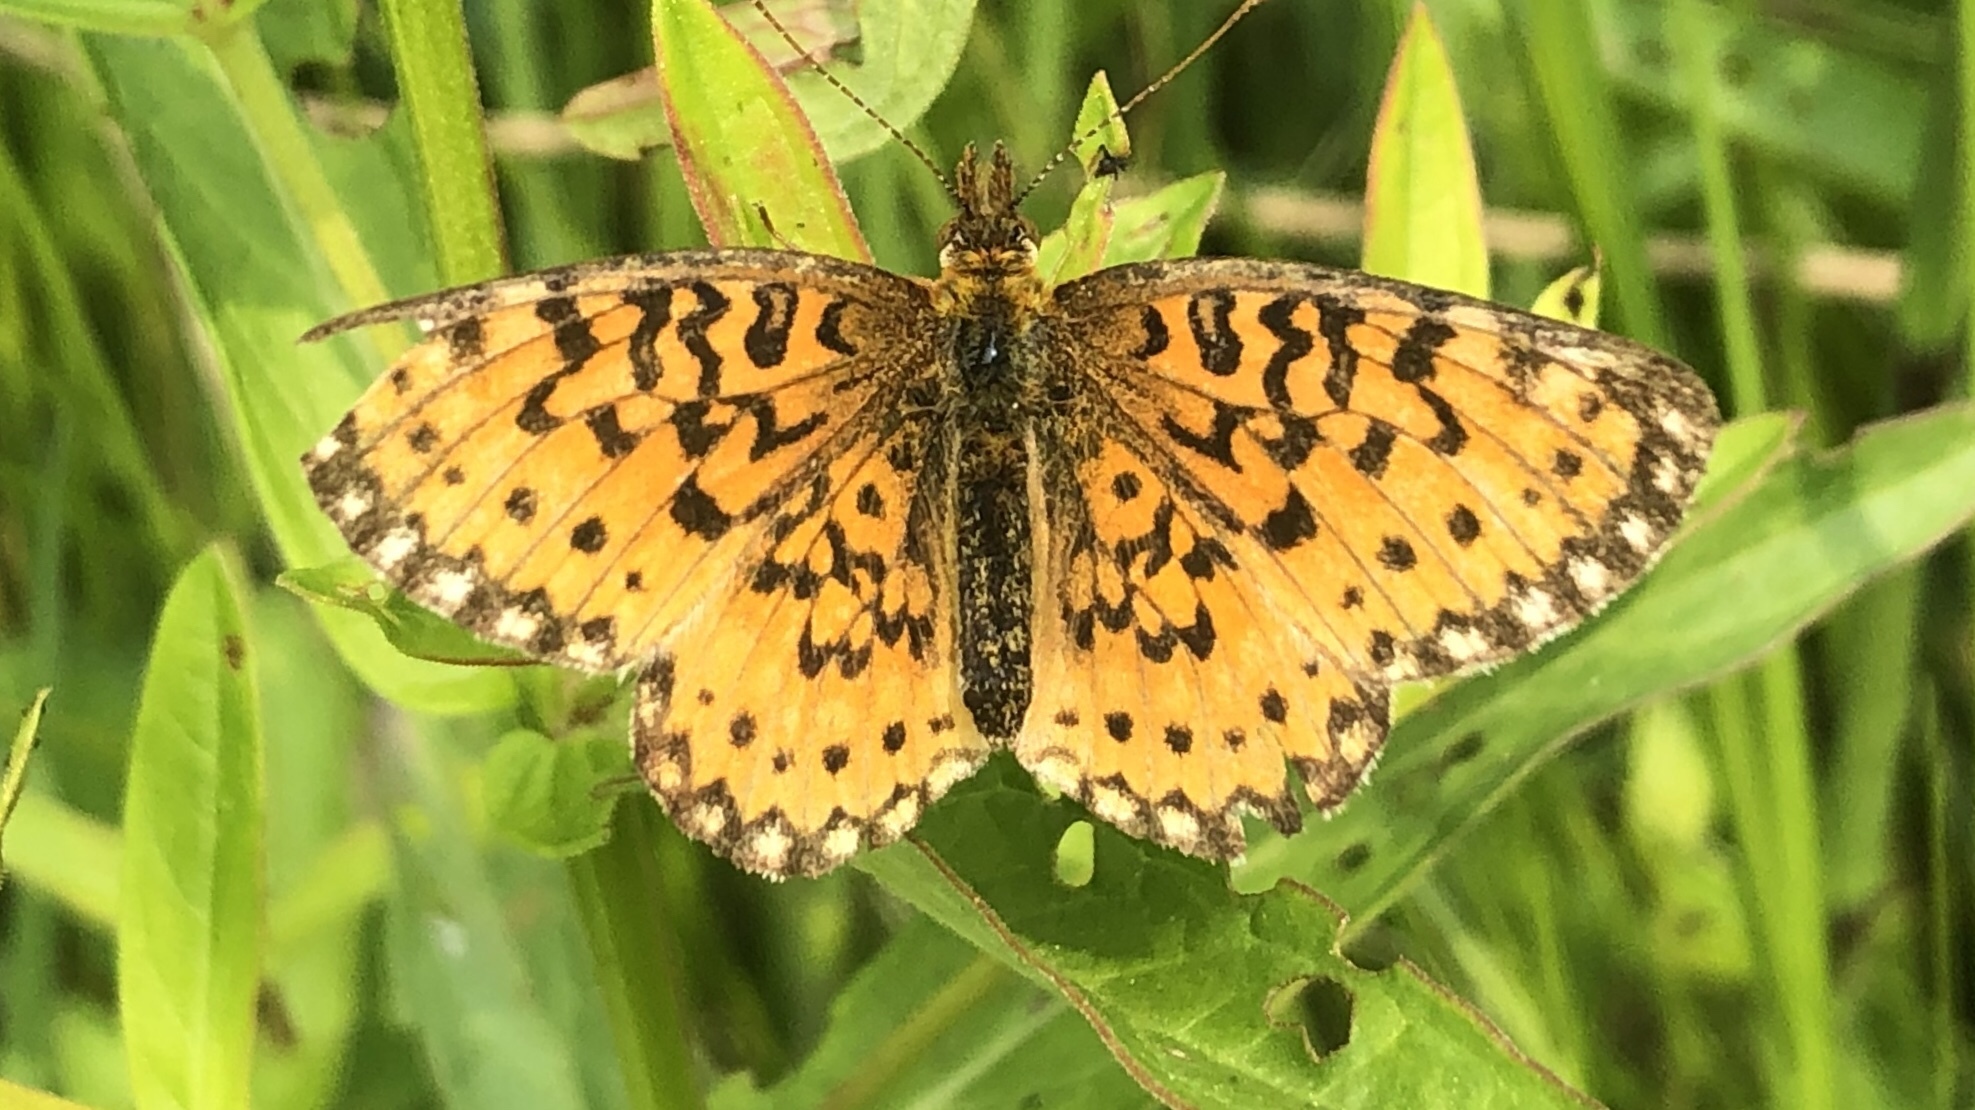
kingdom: Animalia
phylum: Arthropoda
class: Insecta
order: Lepidoptera
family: Nymphalidae
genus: Boloria
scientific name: Boloria
